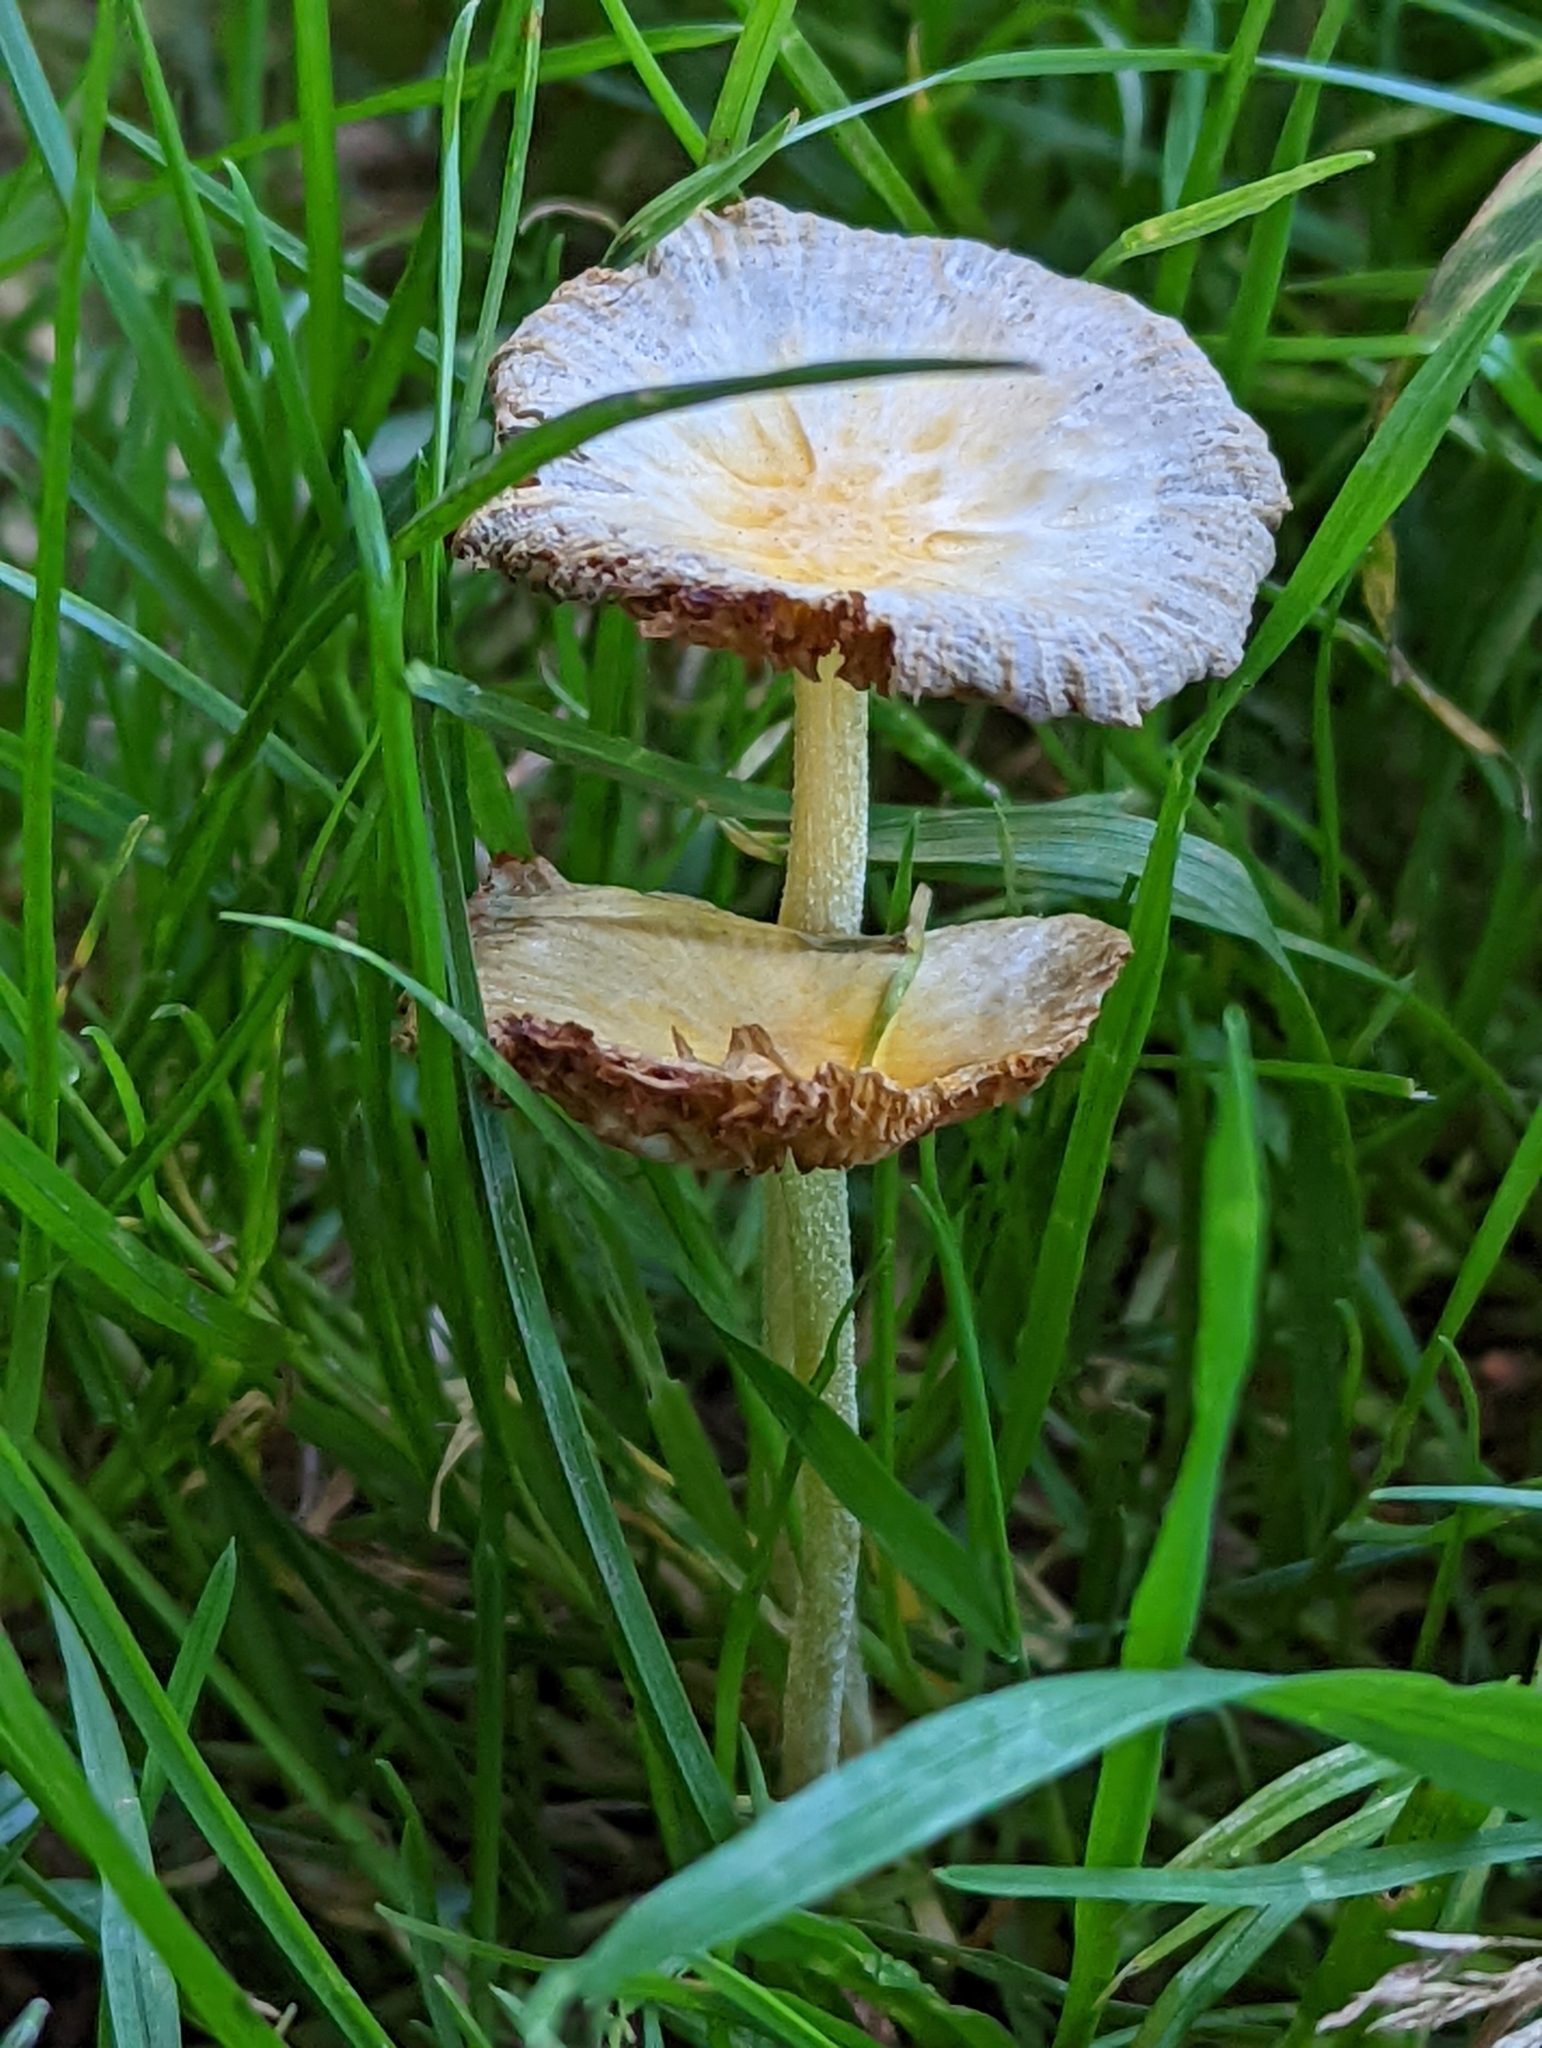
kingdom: Fungi
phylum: Basidiomycota
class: Agaricomycetes
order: Agaricales
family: Bolbitiaceae
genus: Bolbitius
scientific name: Bolbitius titubans
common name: Yellow fieldcap
